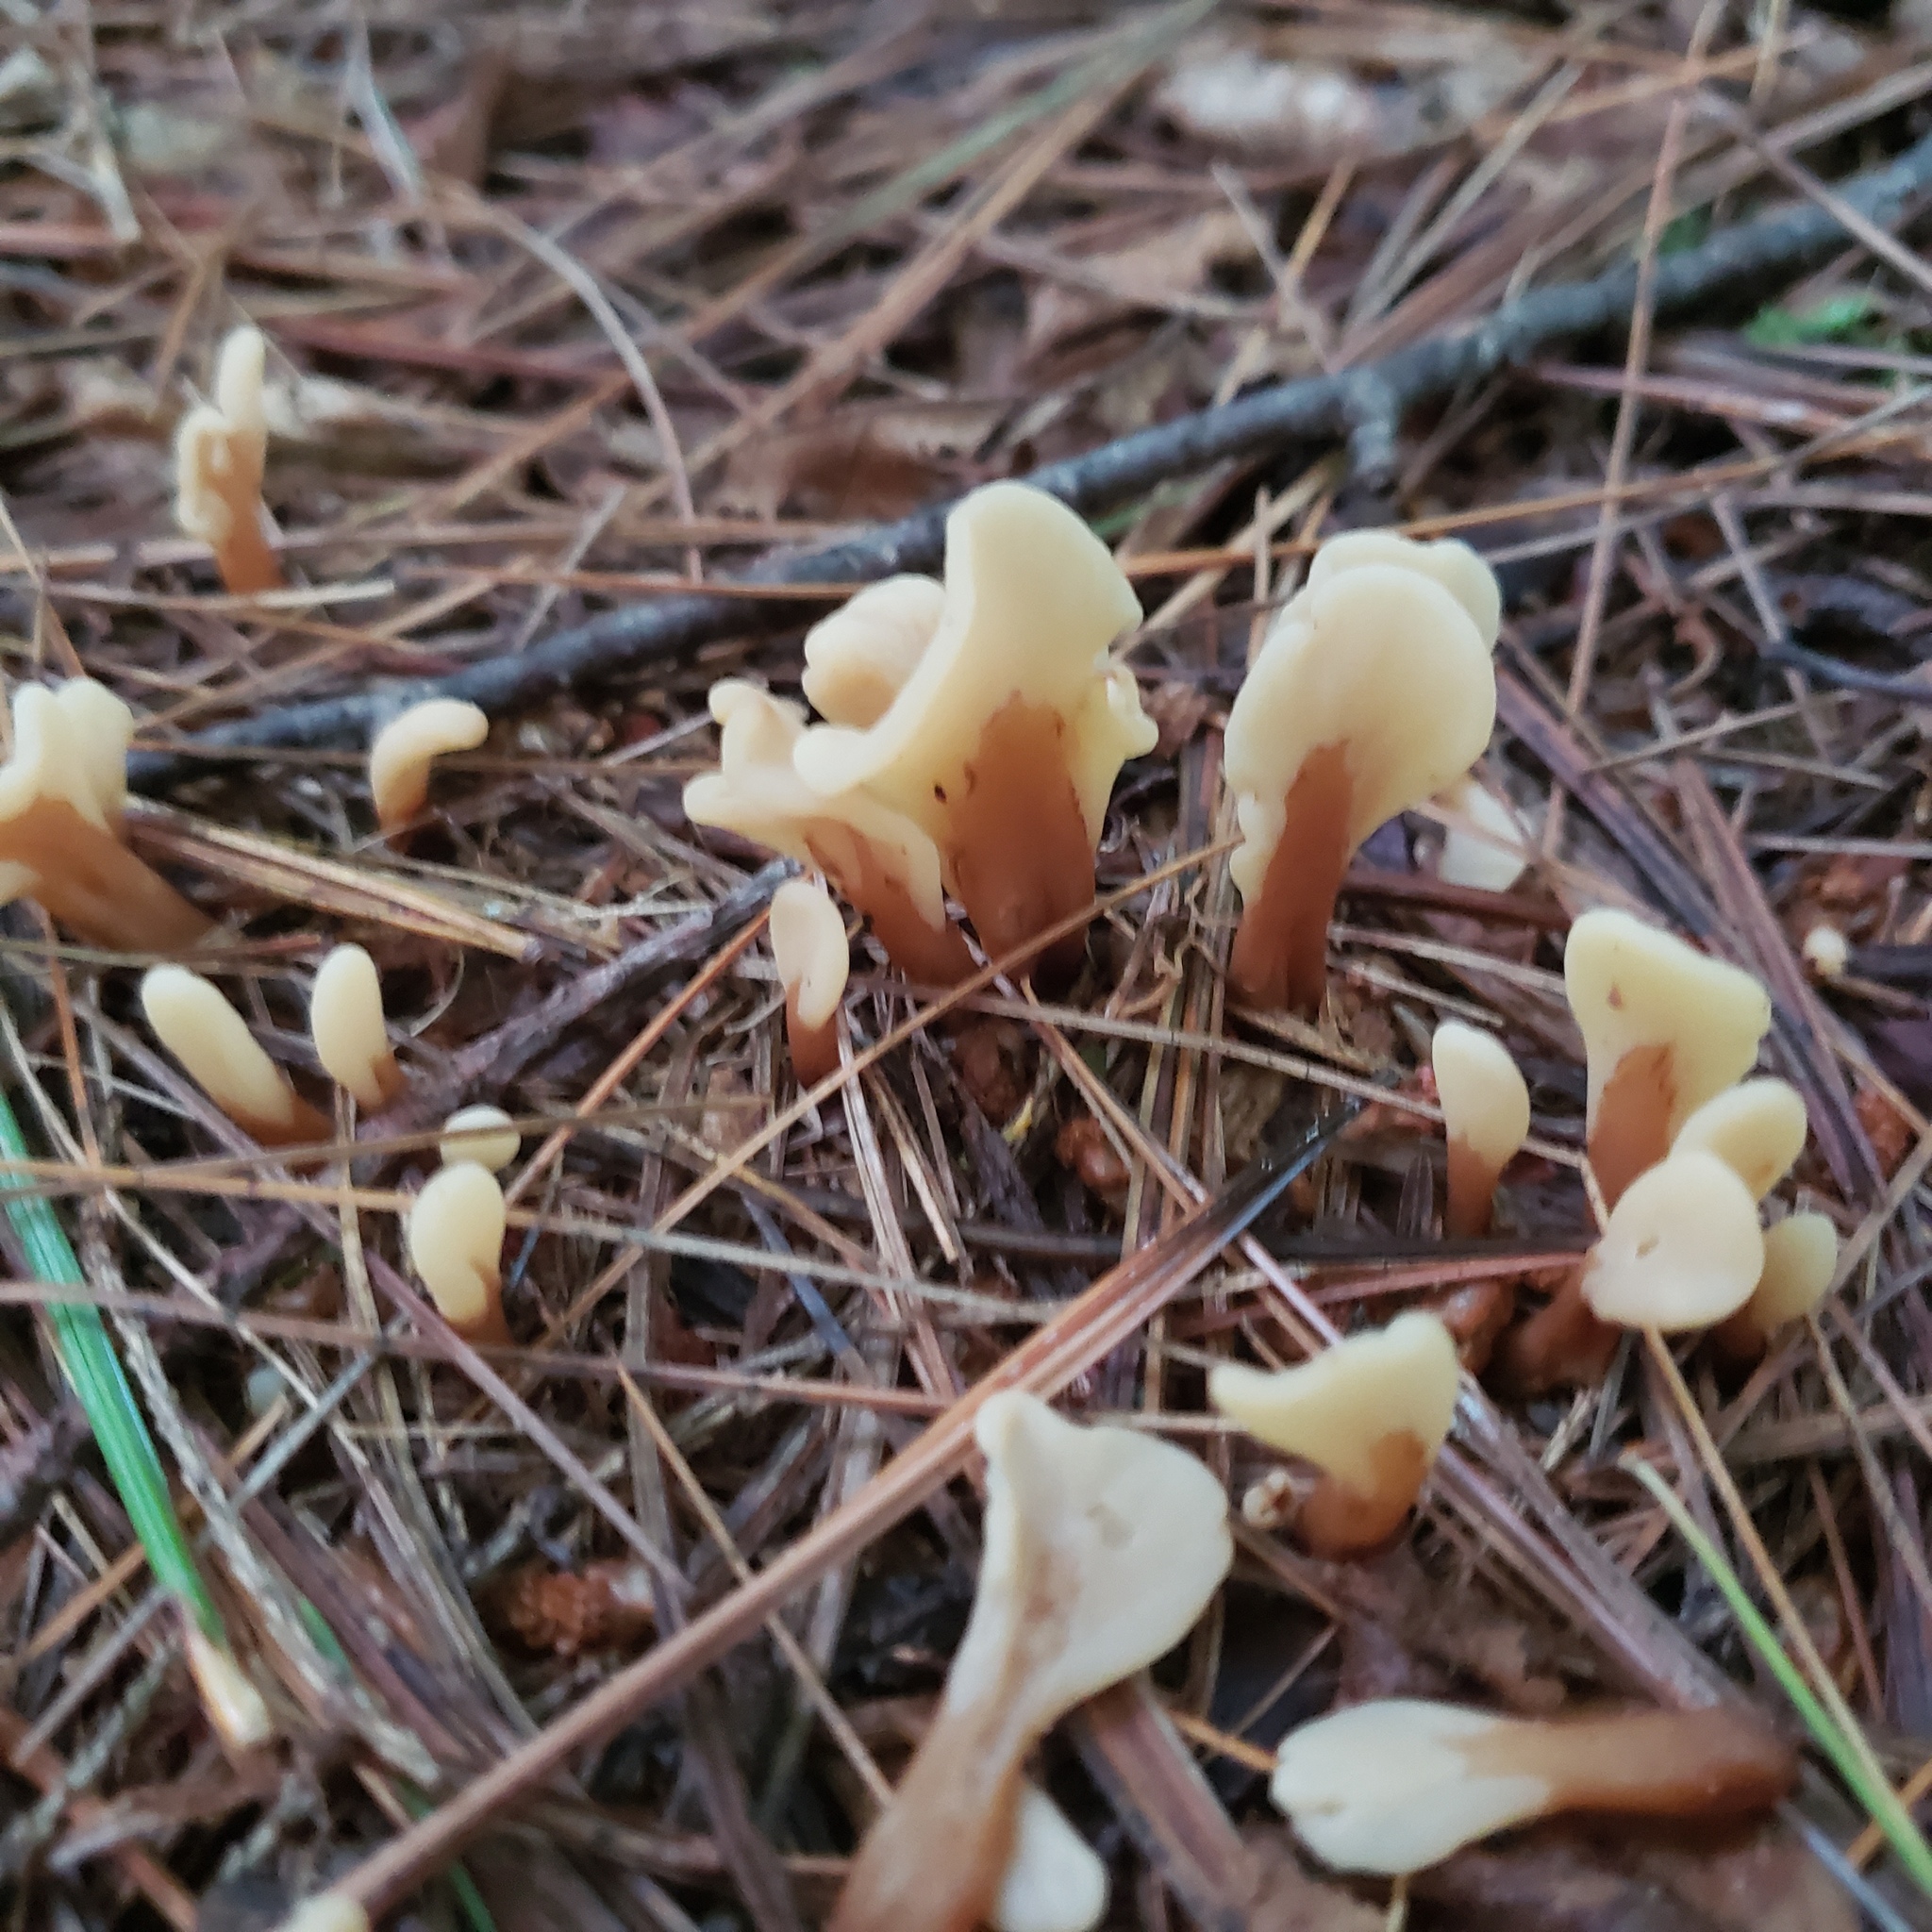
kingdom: Fungi
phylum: Ascomycota
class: Leotiomycetes
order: Rhytismatales
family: Cudoniaceae
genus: Spathulariopsis
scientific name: Spathulariopsis velutipes
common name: Velvet-foot fairy fan
